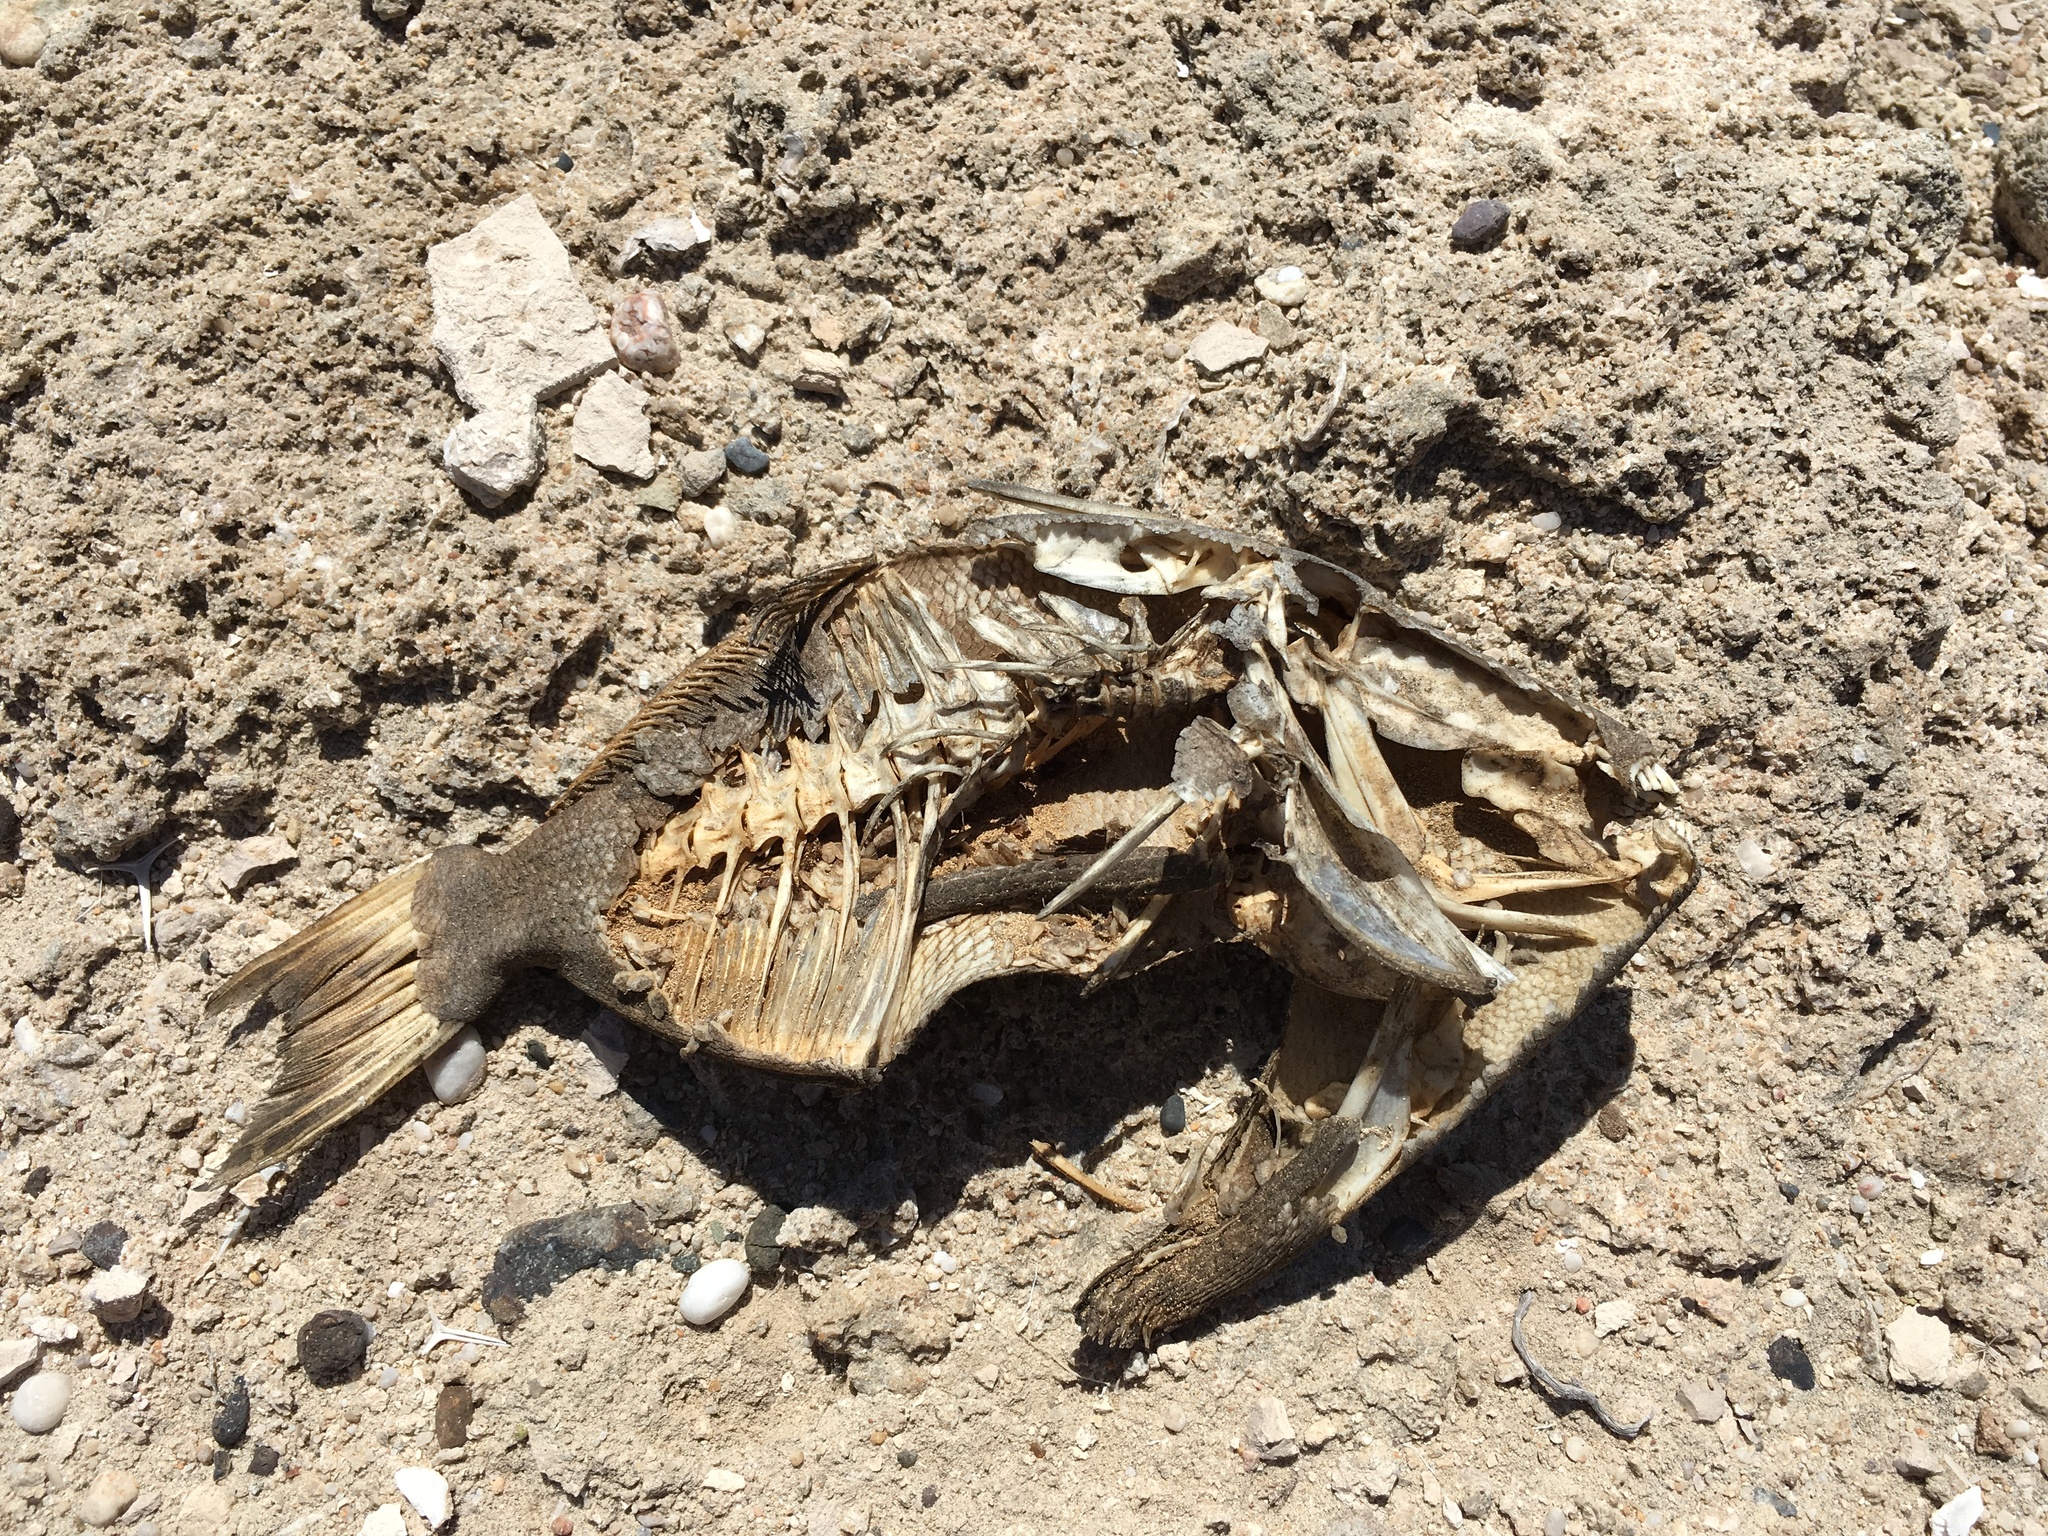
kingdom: Animalia
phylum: Chordata
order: Tetraodontiformes
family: Balistidae
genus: Balistes
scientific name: Balistes polylepis
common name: Finescale triggerfish
